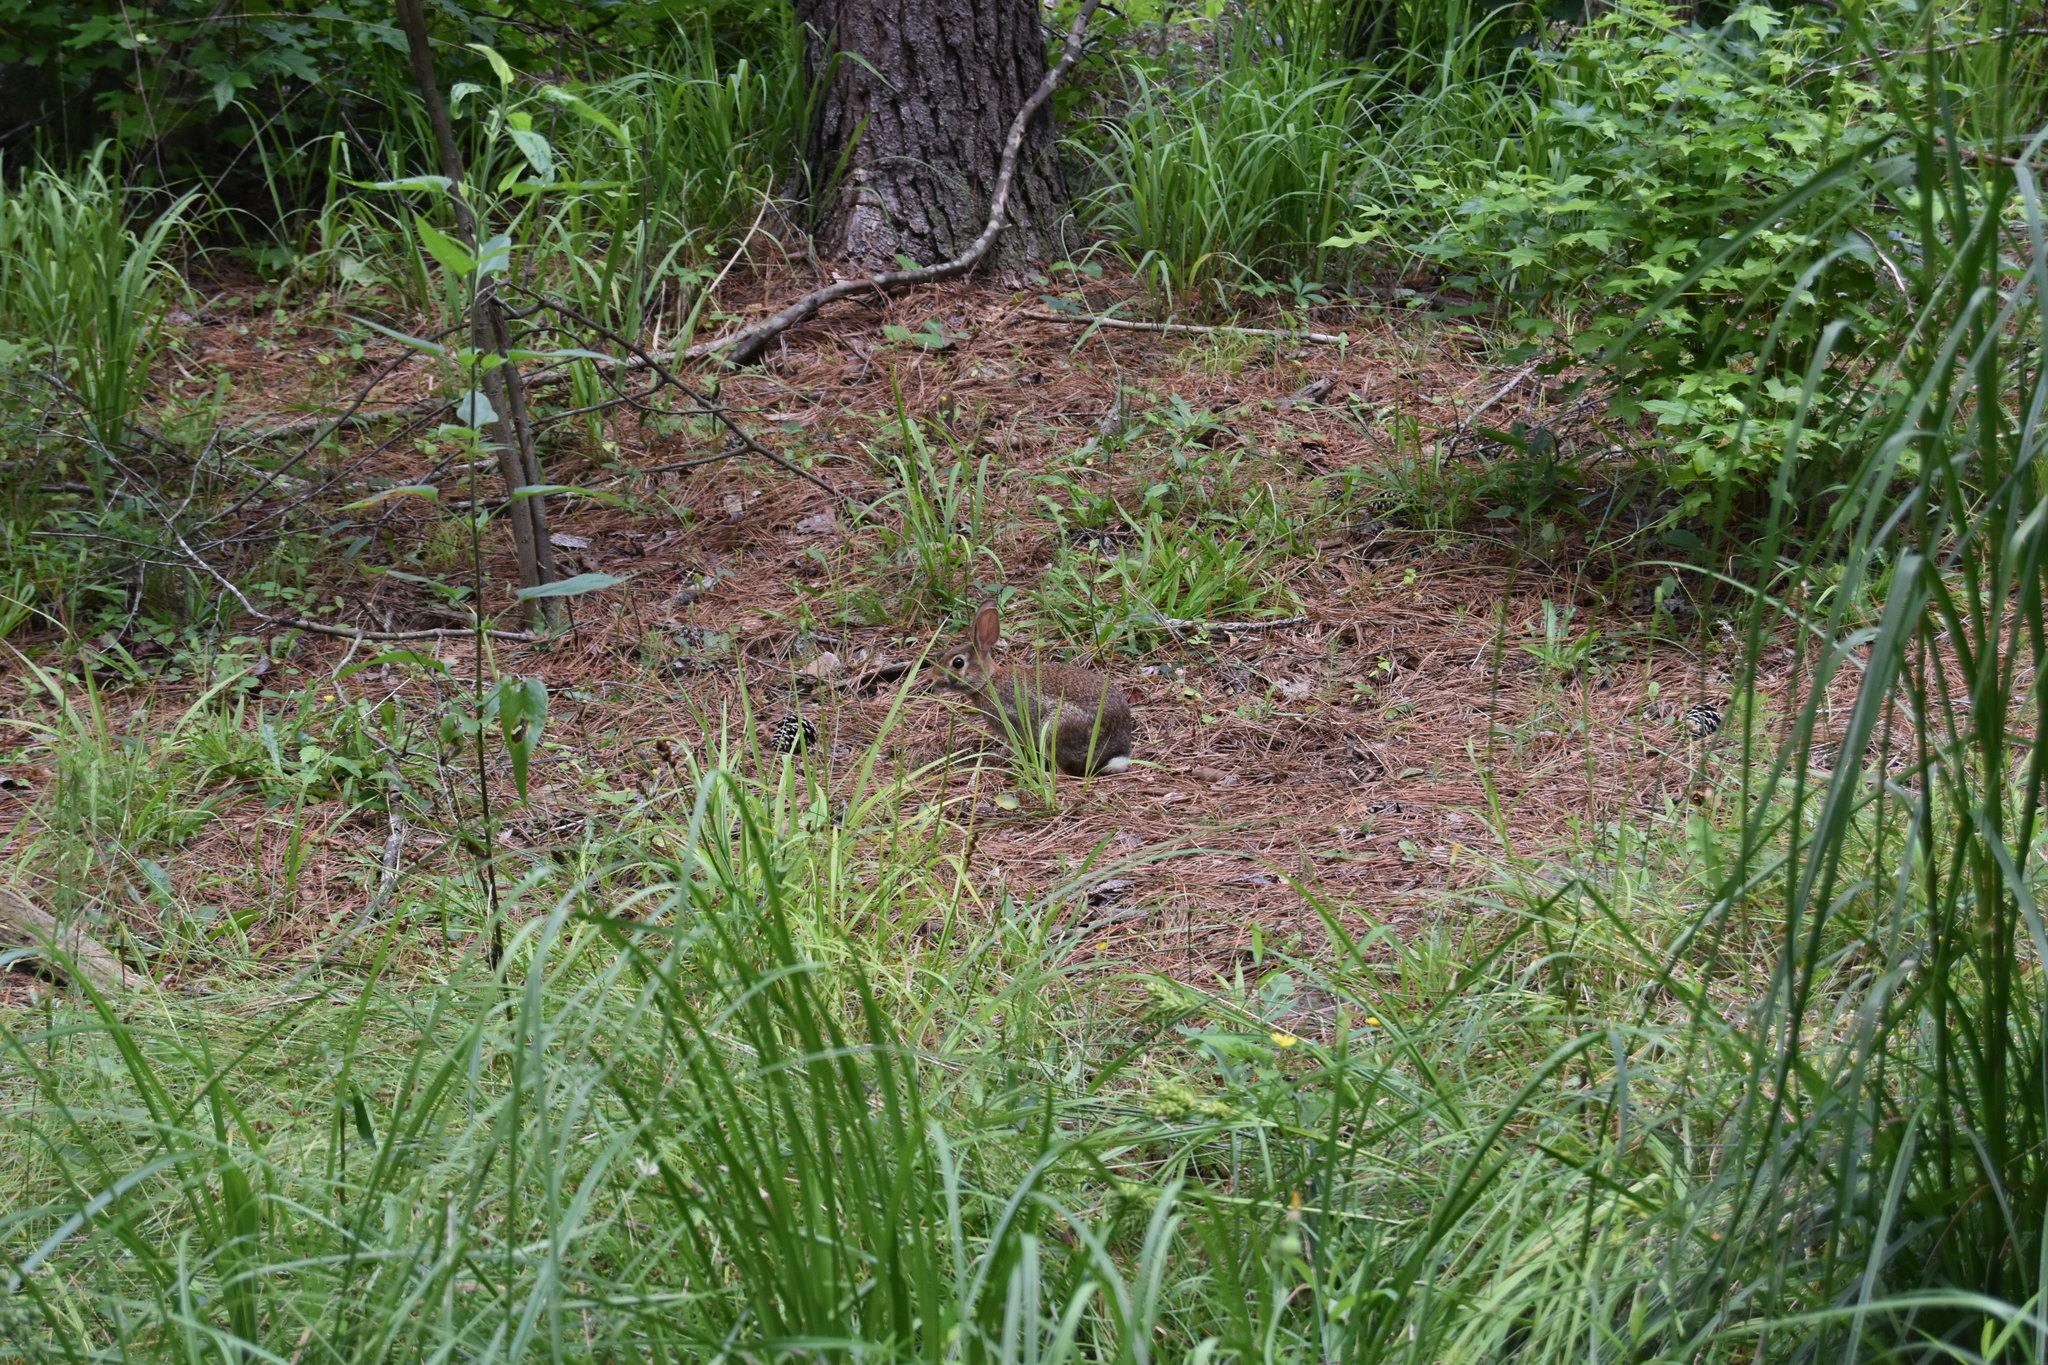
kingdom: Animalia
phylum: Chordata
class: Mammalia
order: Lagomorpha
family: Leporidae
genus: Sylvilagus
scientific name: Sylvilagus floridanus
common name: Eastern cottontail
